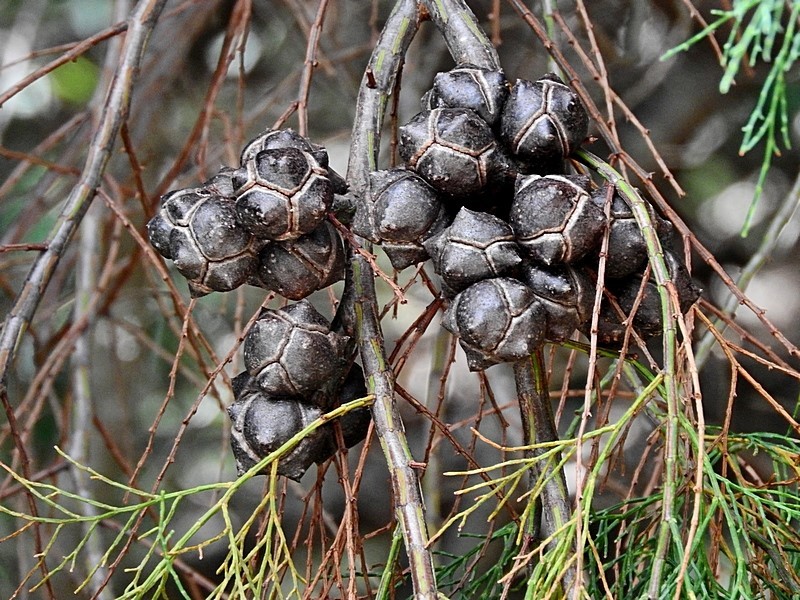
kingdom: Plantae
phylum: Tracheophyta
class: Pinopsida
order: Pinales
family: Cupressaceae
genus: Callitris
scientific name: Callitris rhomboidea
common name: Illawara mountain pine
